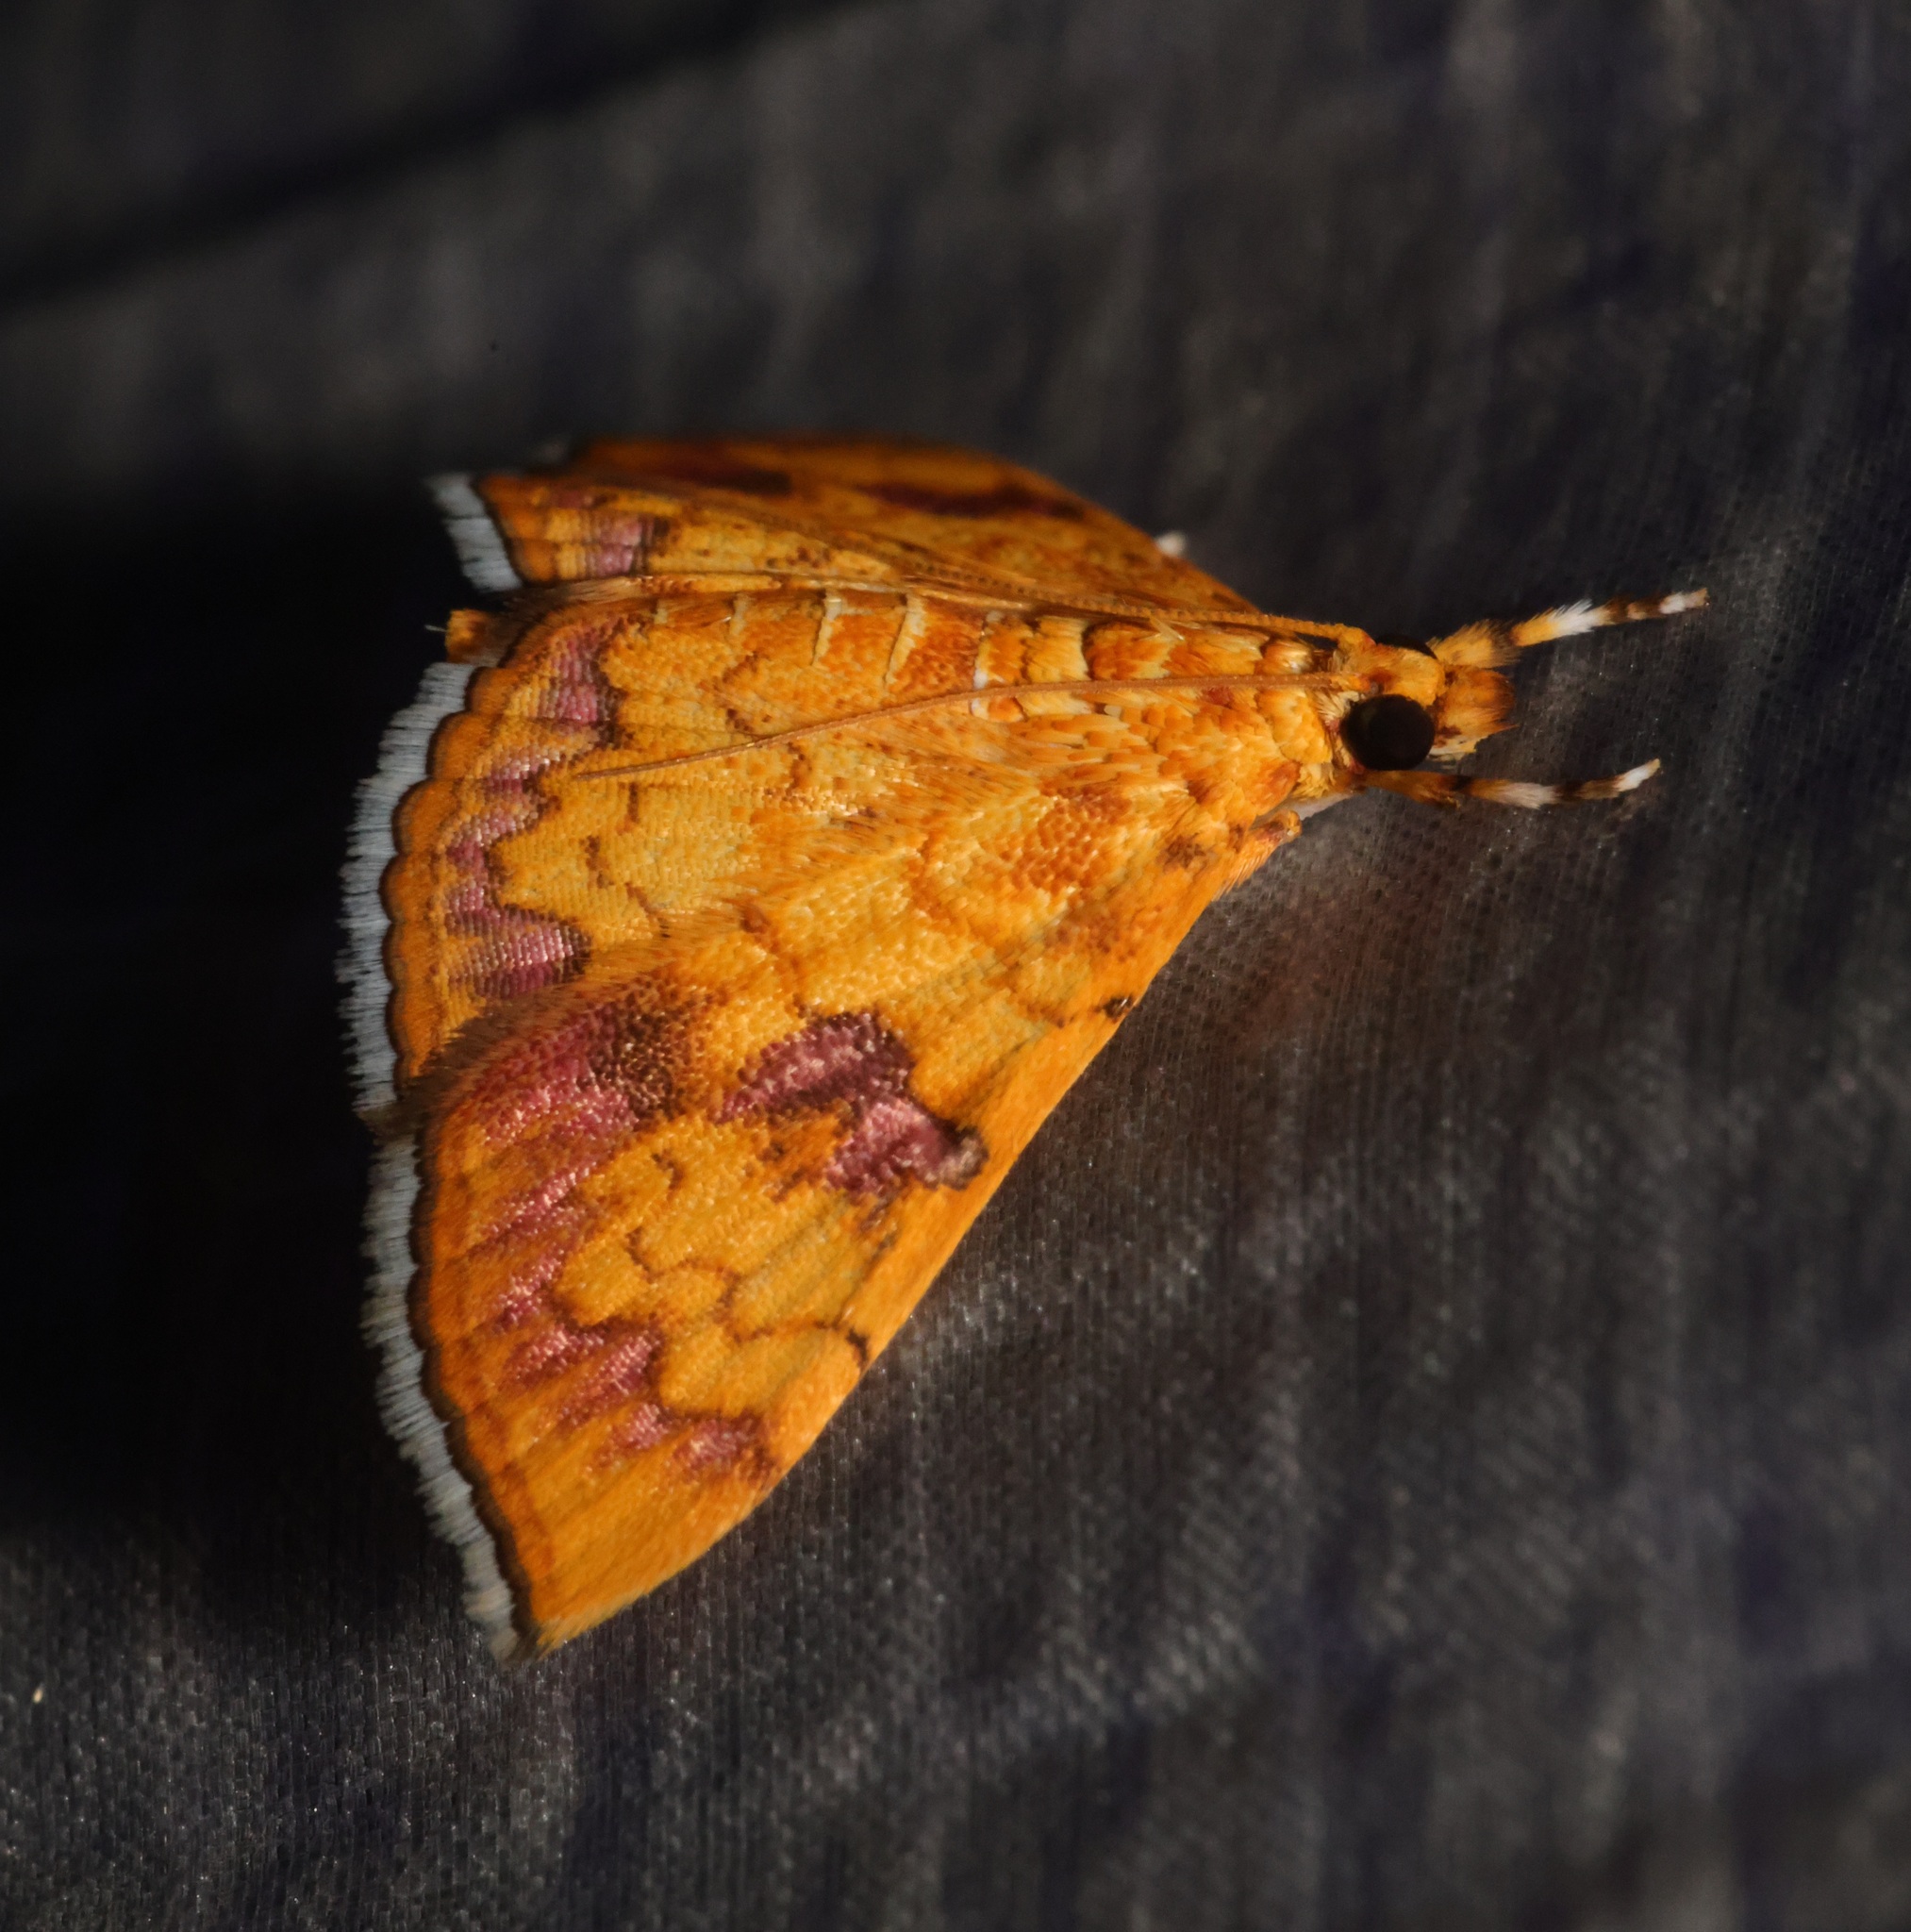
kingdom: Animalia
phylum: Arthropoda
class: Insecta
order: Lepidoptera
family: Crambidae
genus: Isocentris
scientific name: Isocentris filalis
